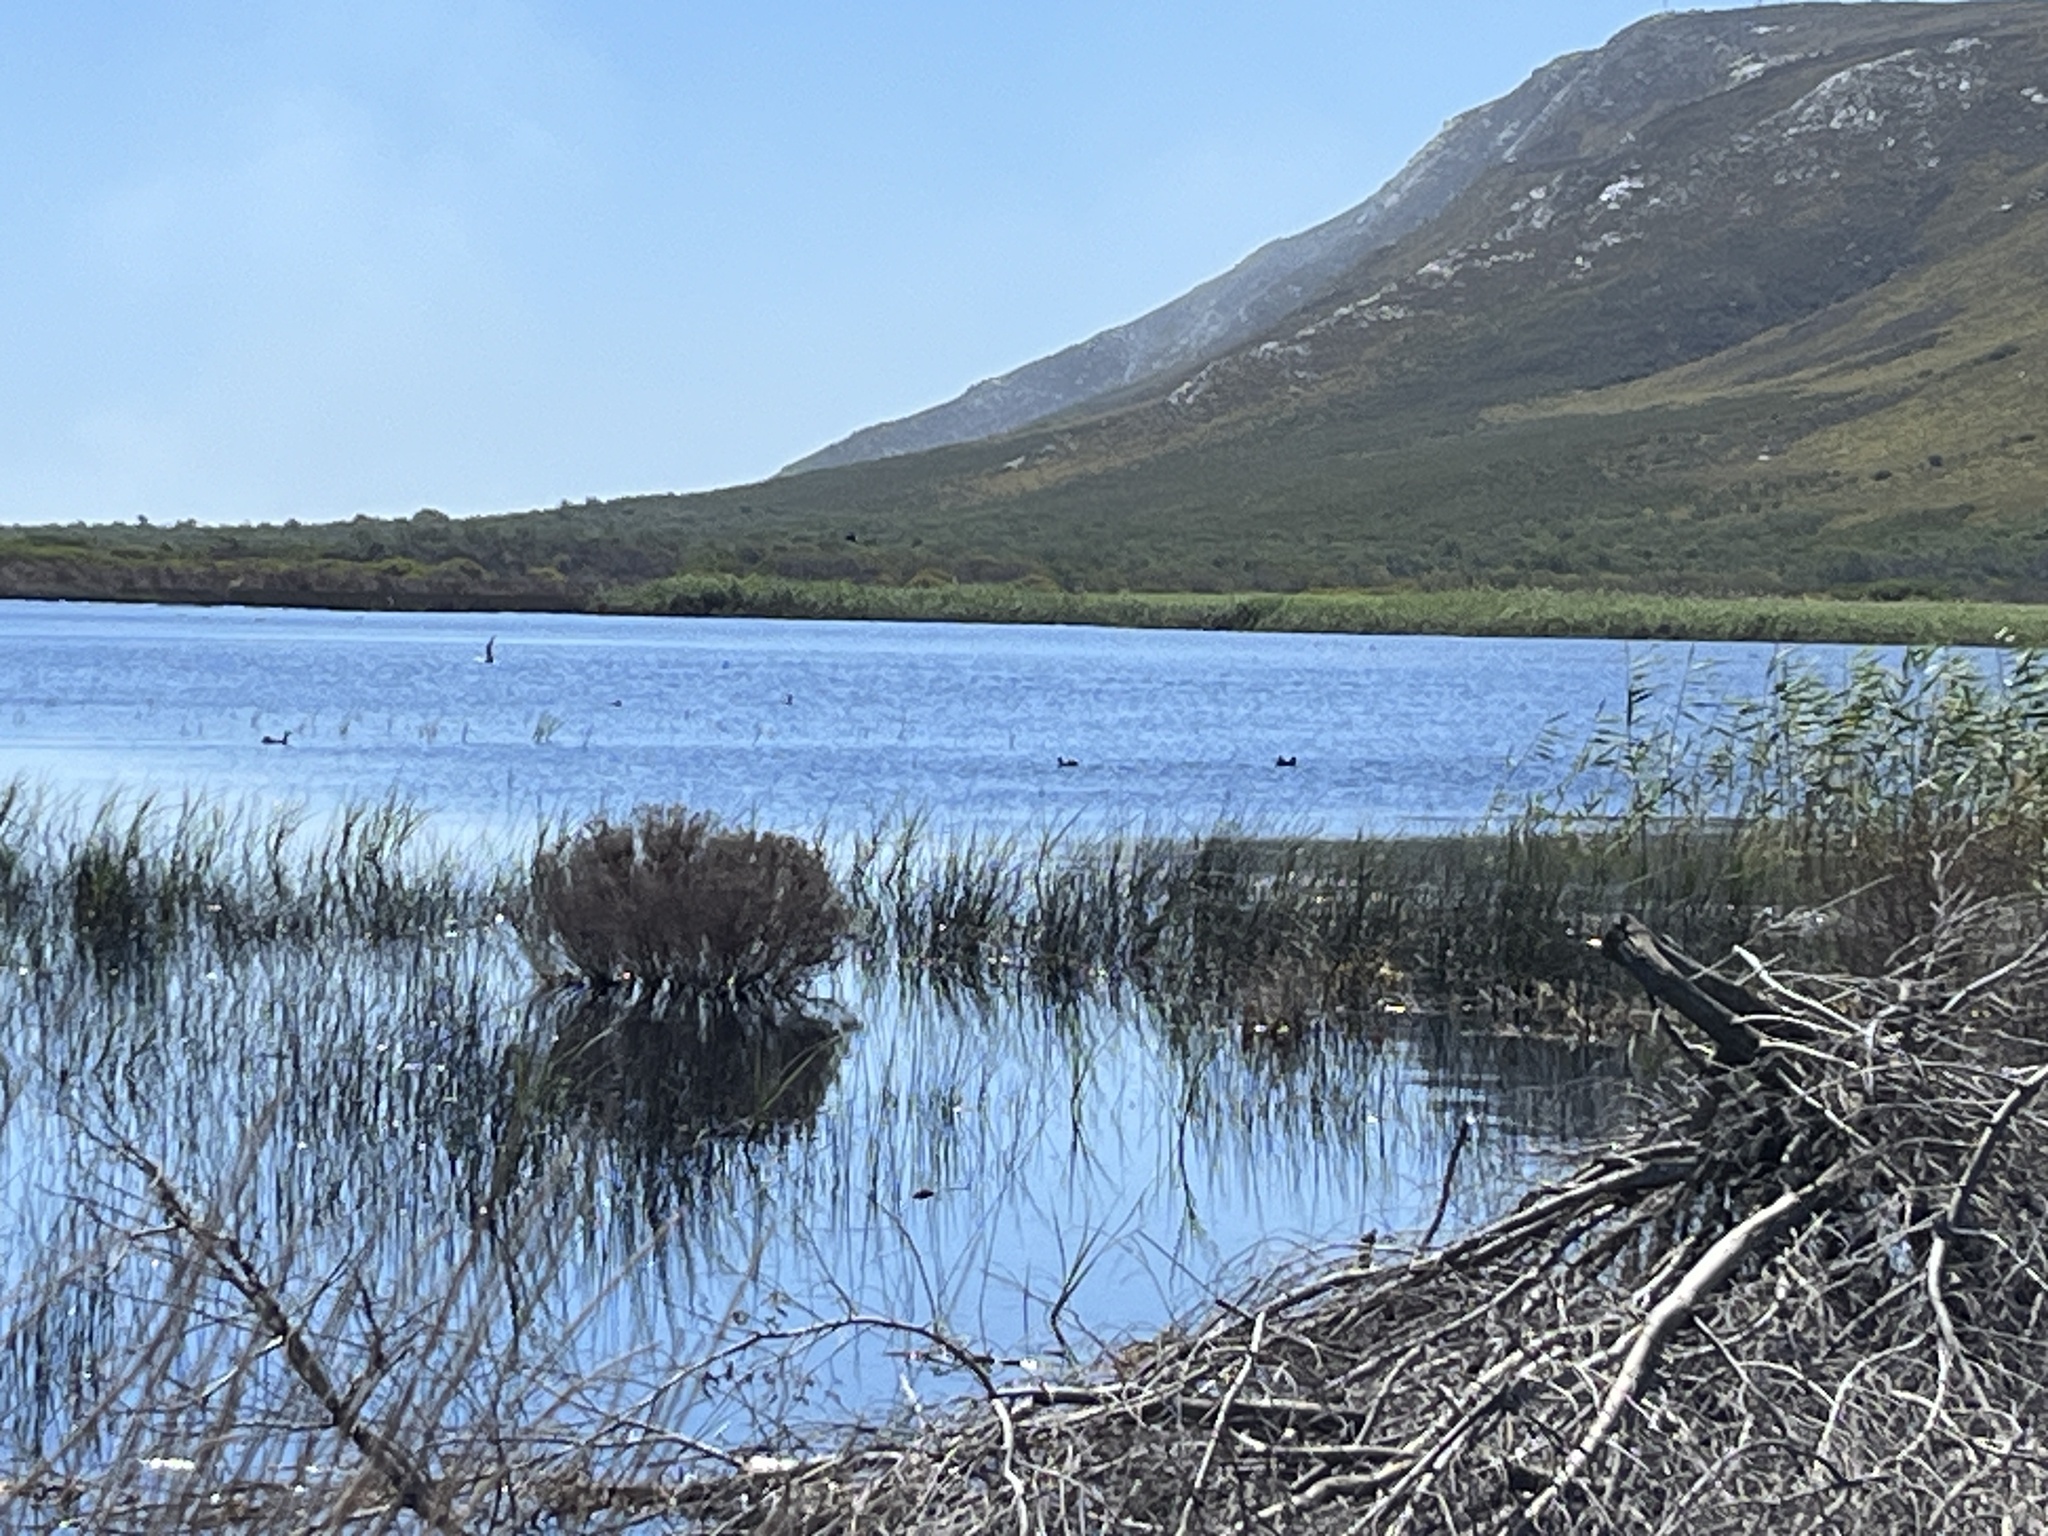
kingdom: Animalia
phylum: Chordata
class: Aves
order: Gruiformes
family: Rallidae
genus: Fulica
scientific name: Fulica cristata
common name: Red-knobbed coot
